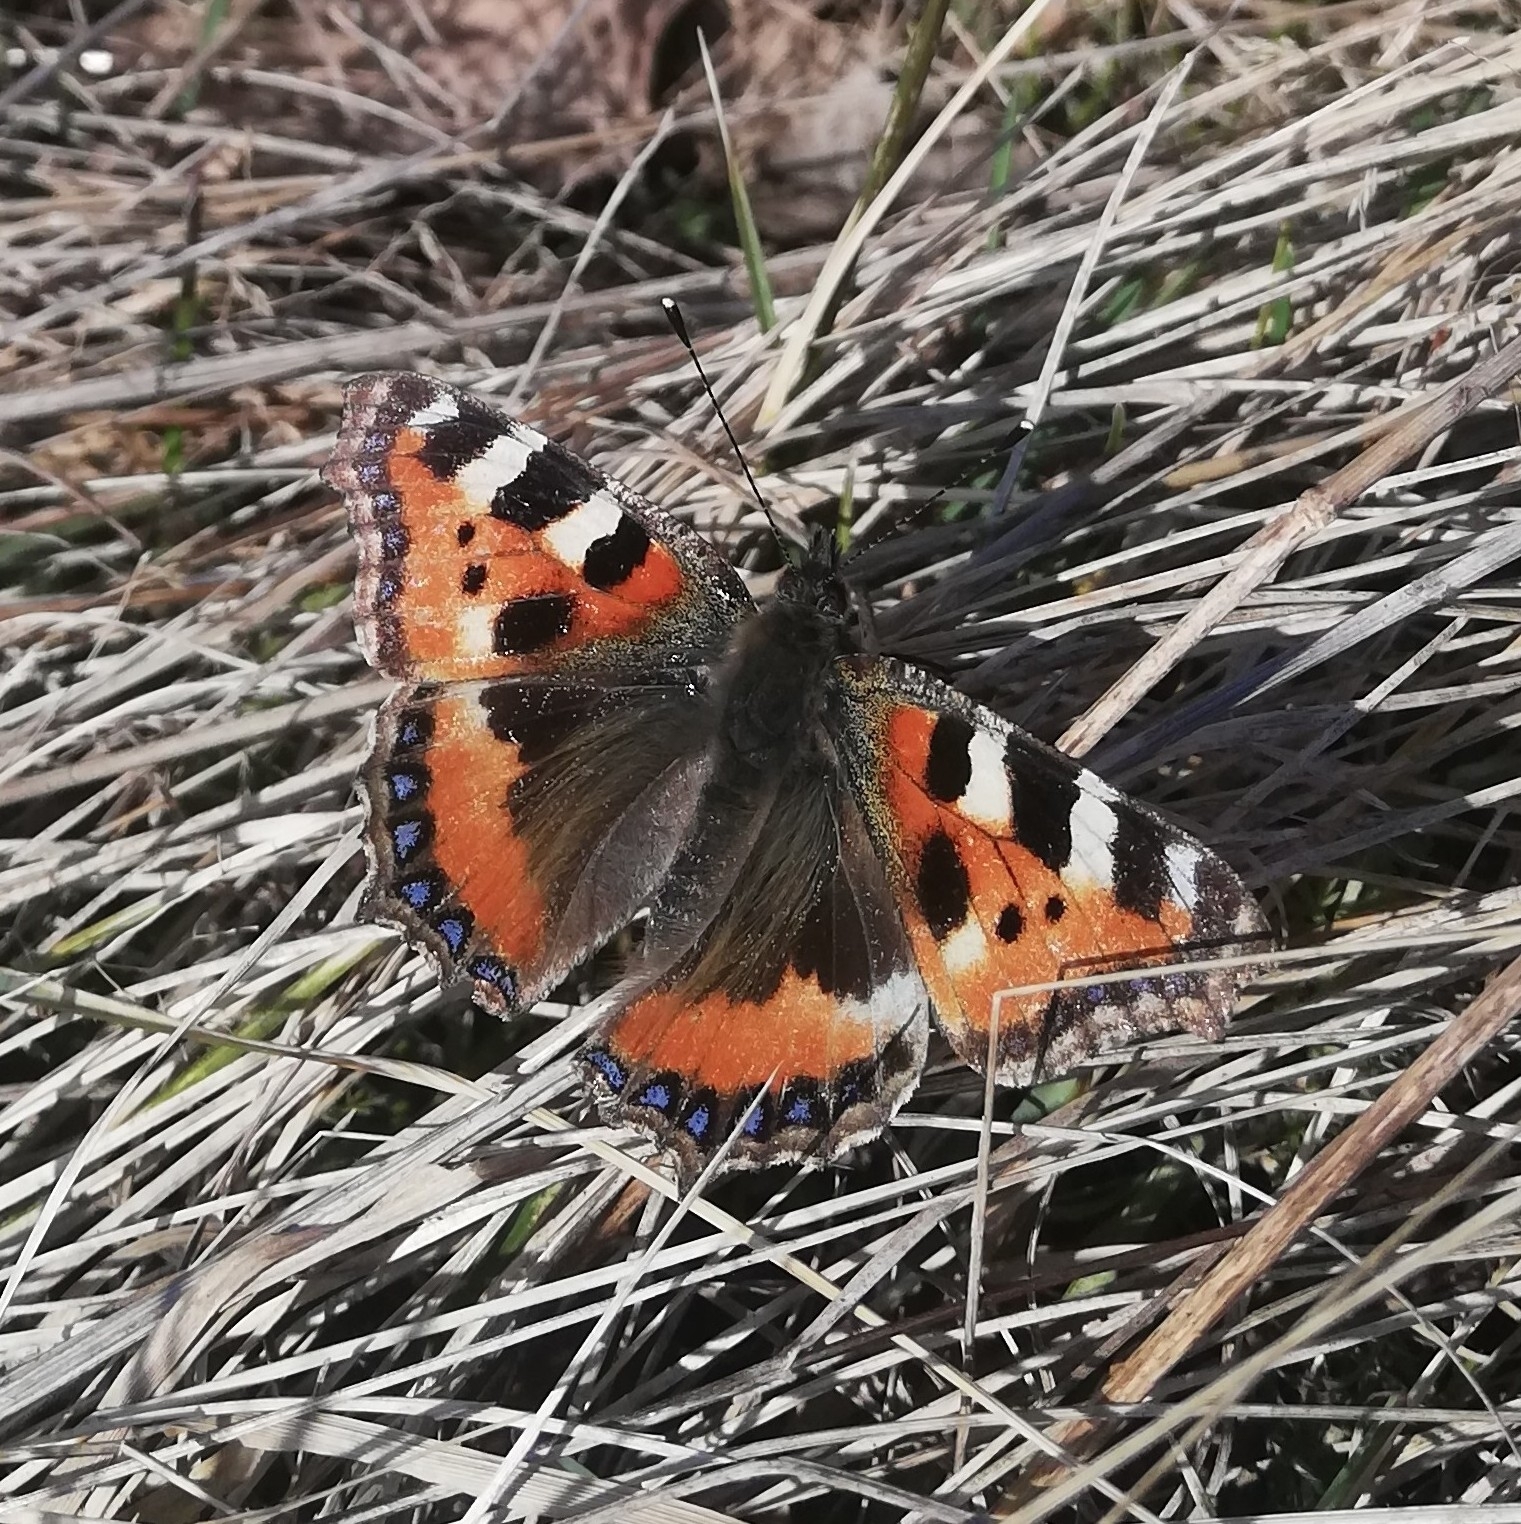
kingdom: Animalia
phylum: Arthropoda
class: Insecta
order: Lepidoptera
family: Nymphalidae
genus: Aglais
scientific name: Aglais urticae
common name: Small tortoiseshell
